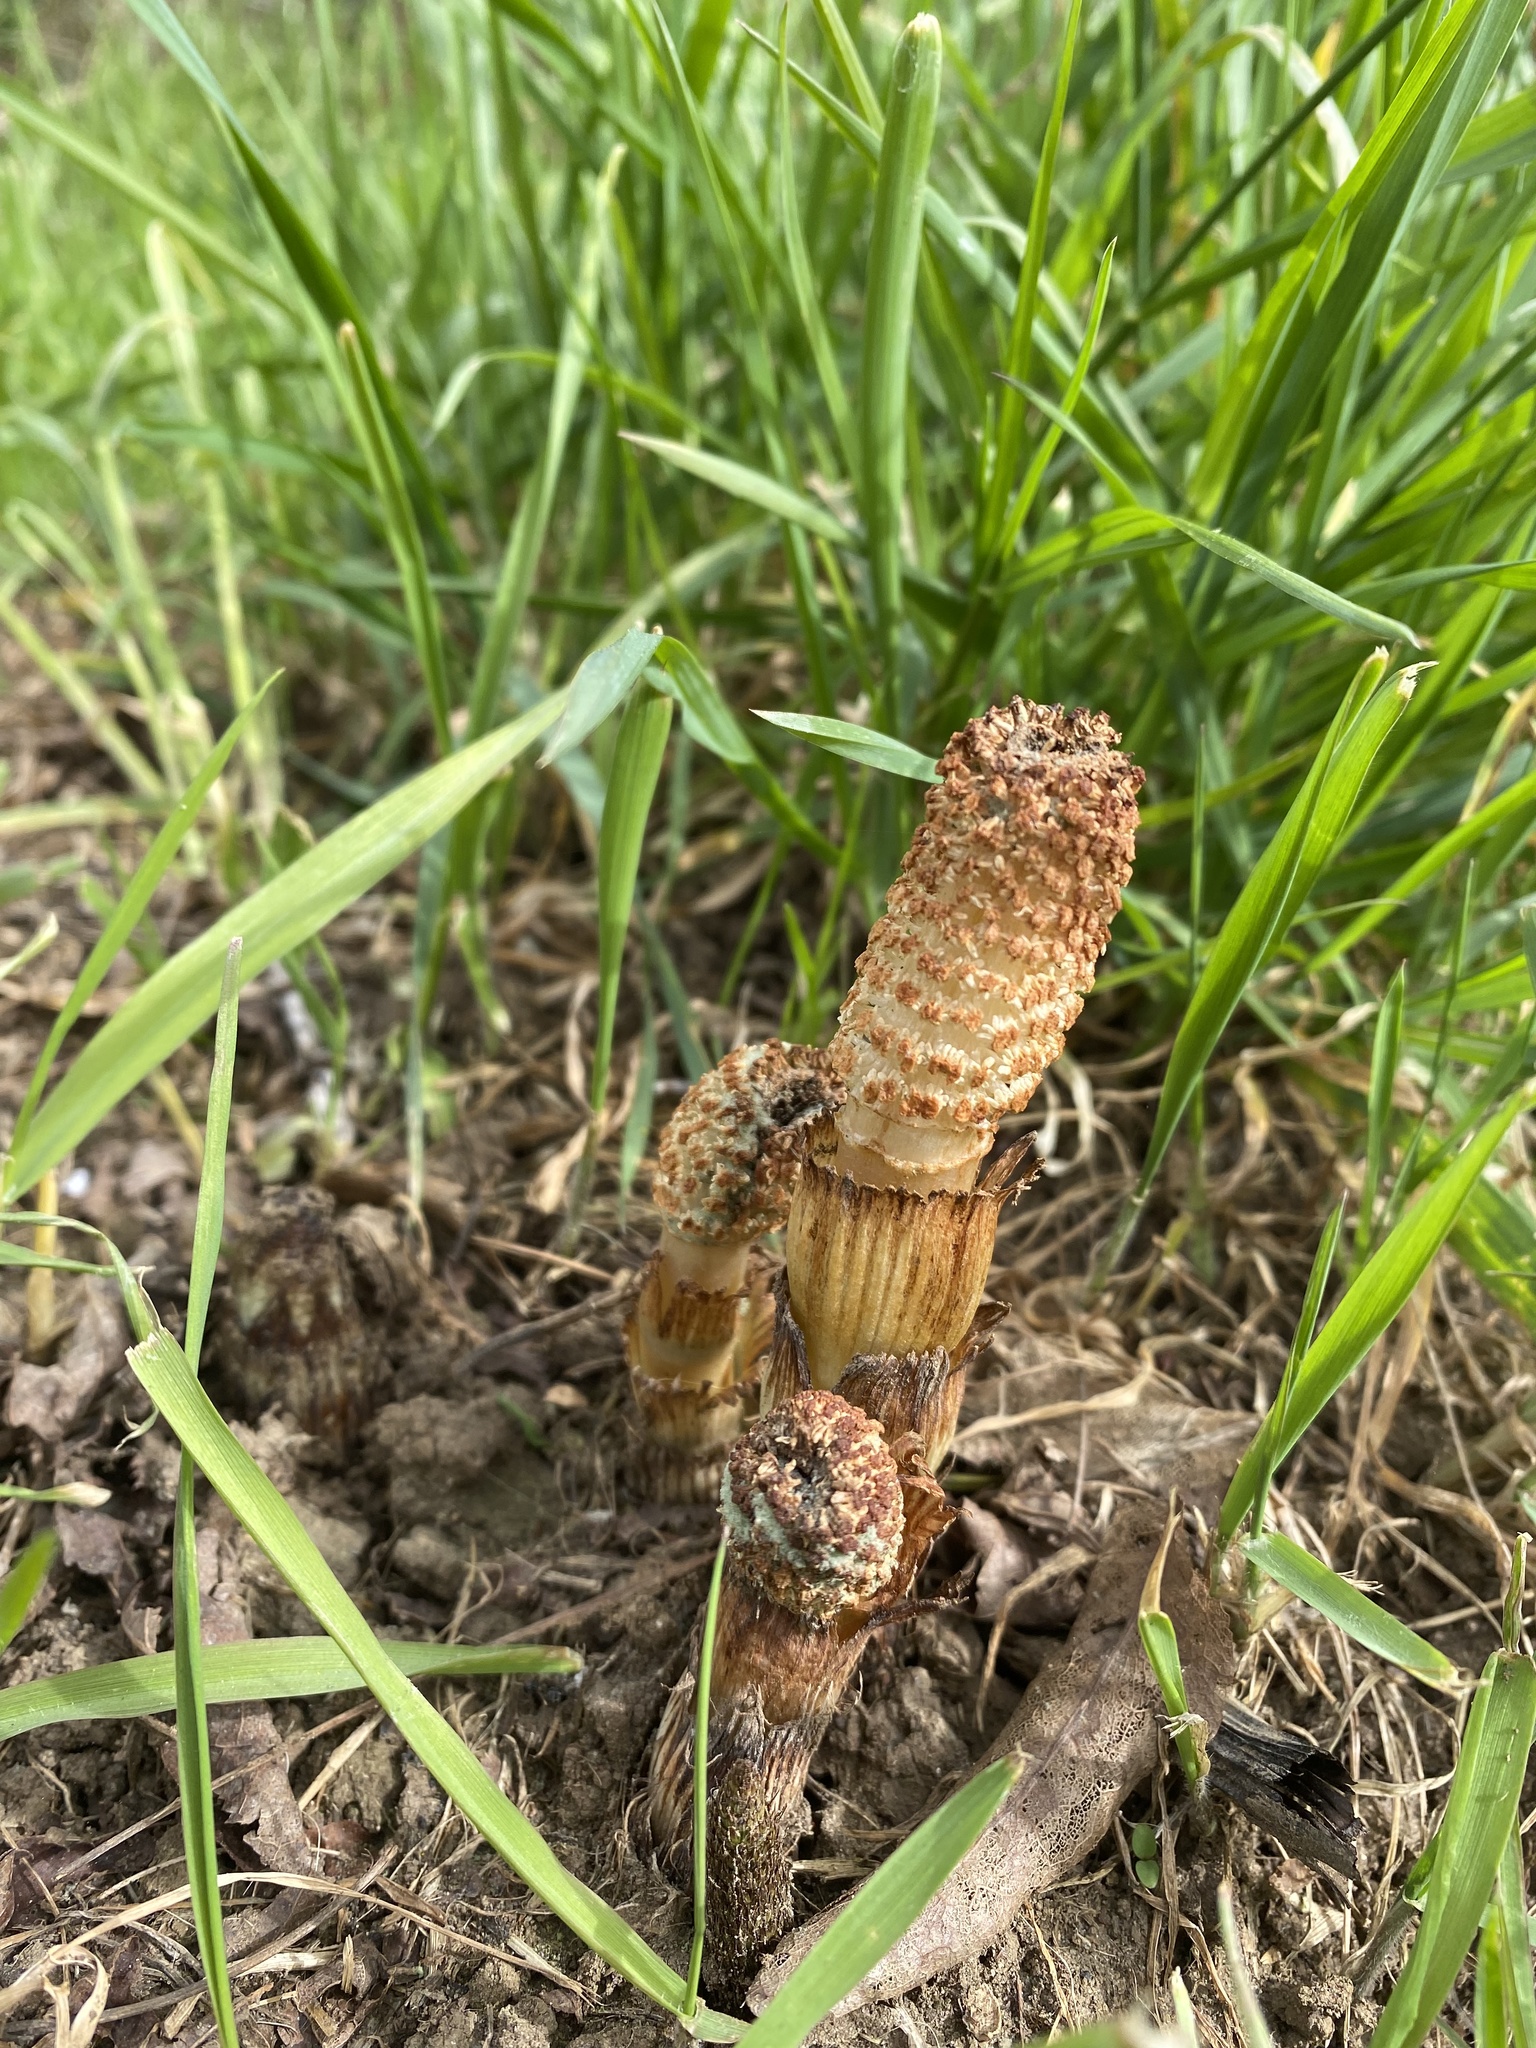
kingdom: Plantae
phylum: Tracheophyta
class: Polypodiopsida
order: Equisetales
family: Equisetaceae
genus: Equisetum
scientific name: Equisetum telmateia
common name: Great horsetail
